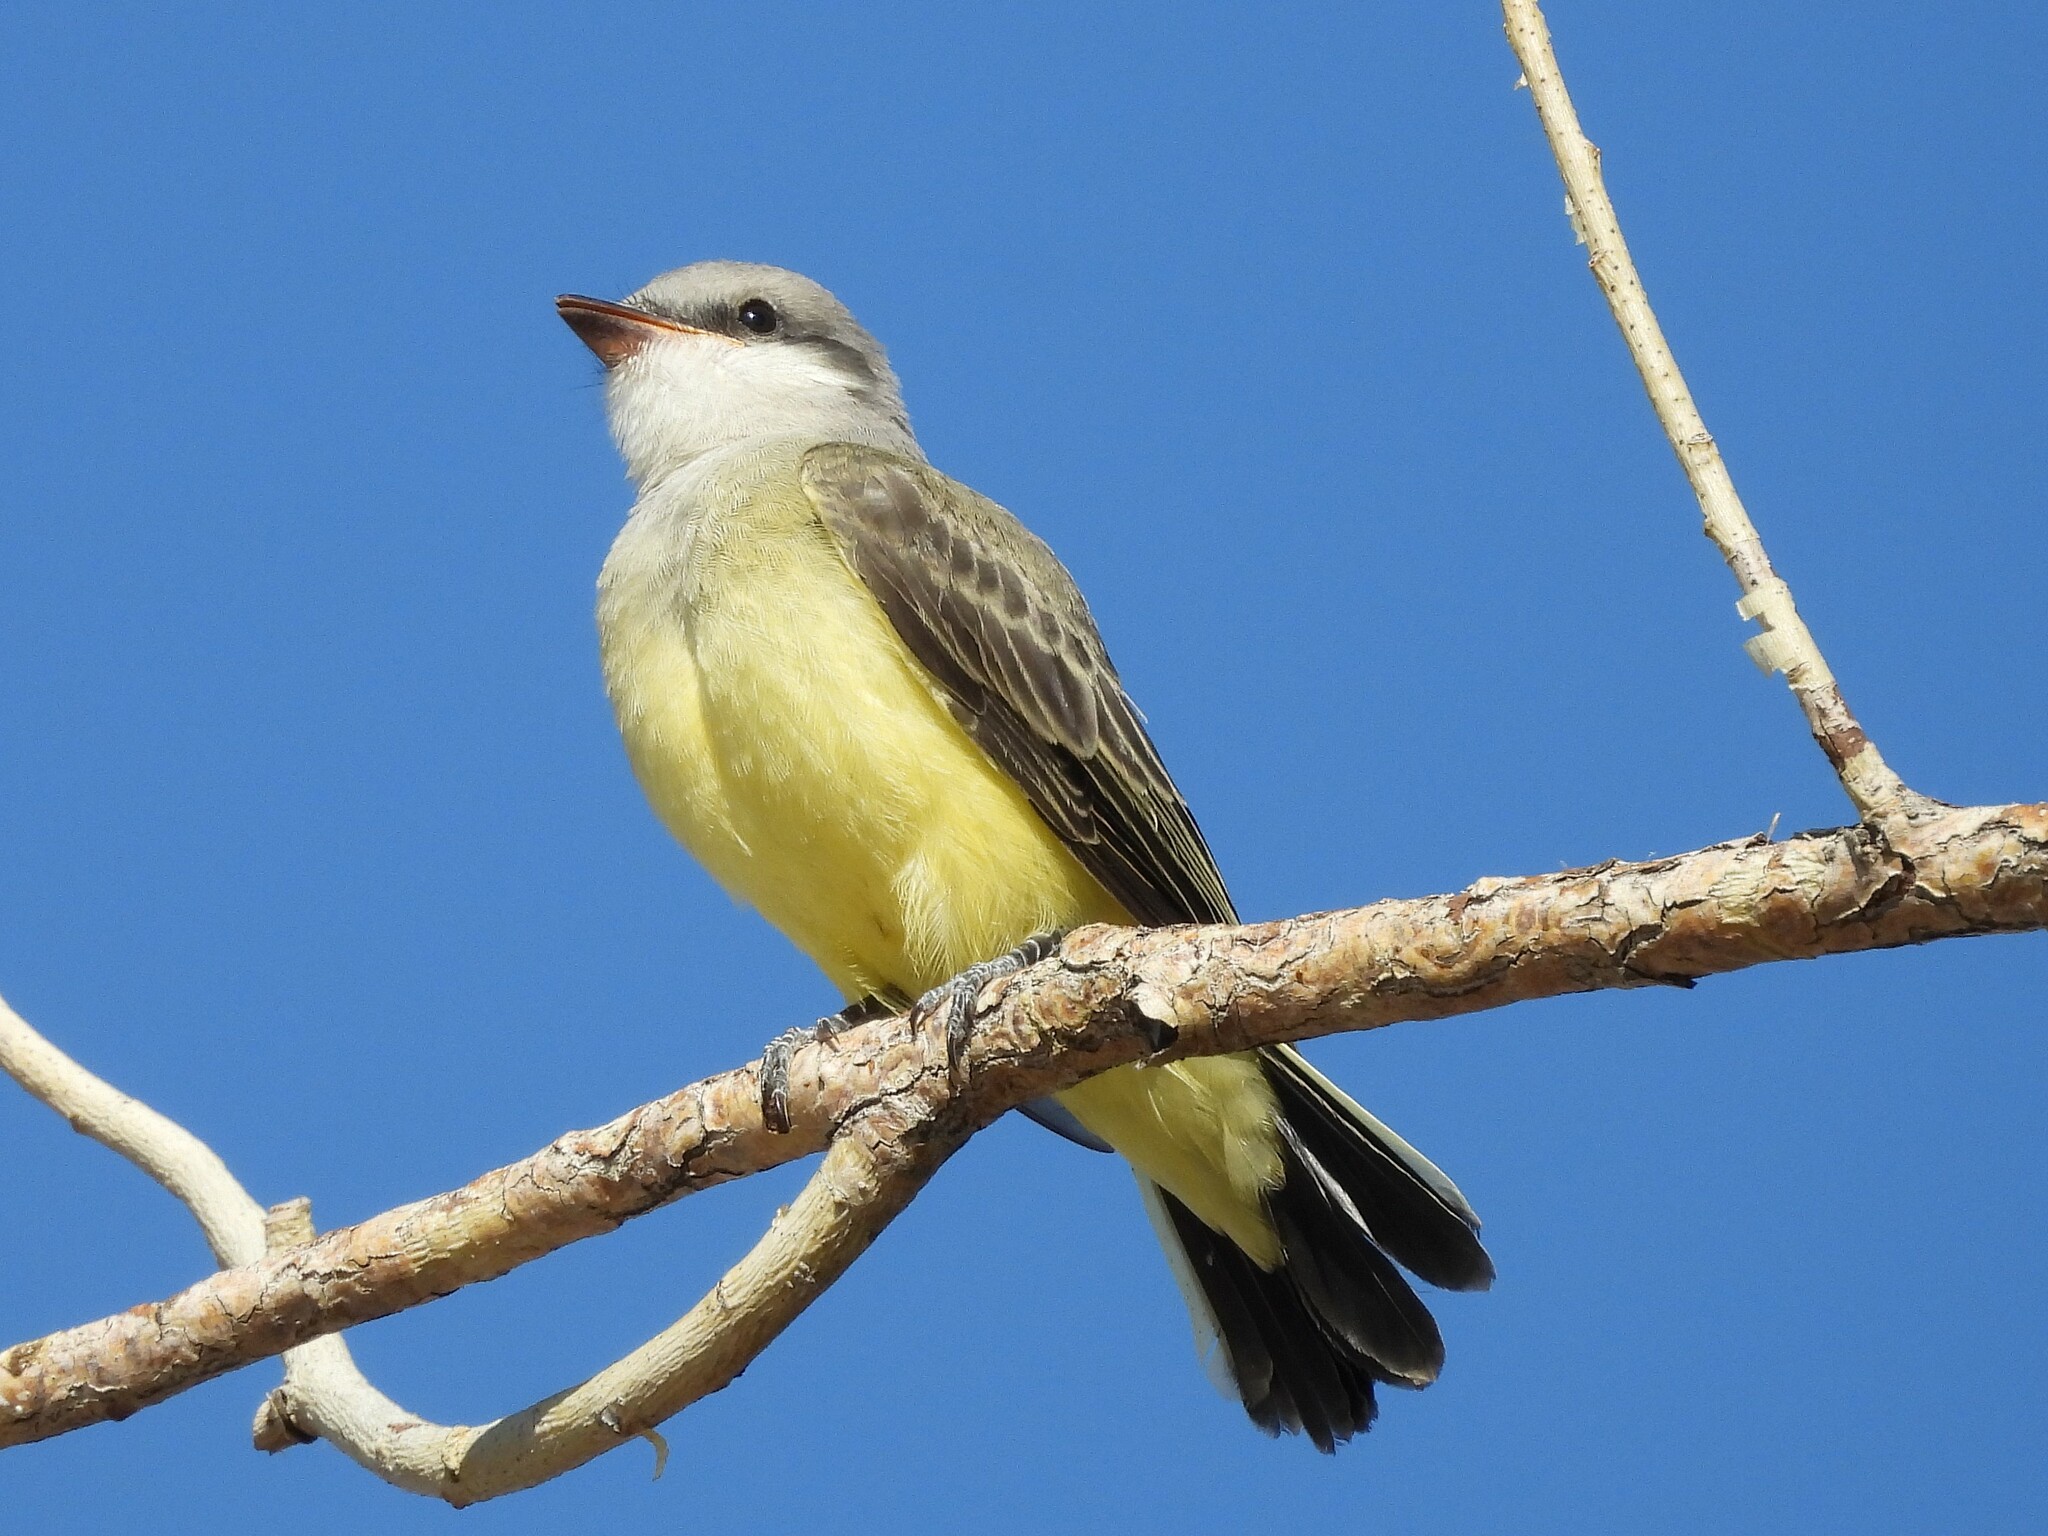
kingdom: Animalia
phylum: Chordata
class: Aves
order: Passeriformes
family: Tyrannidae
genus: Tyrannus
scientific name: Tyrannus verticalis
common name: Western kingbird
